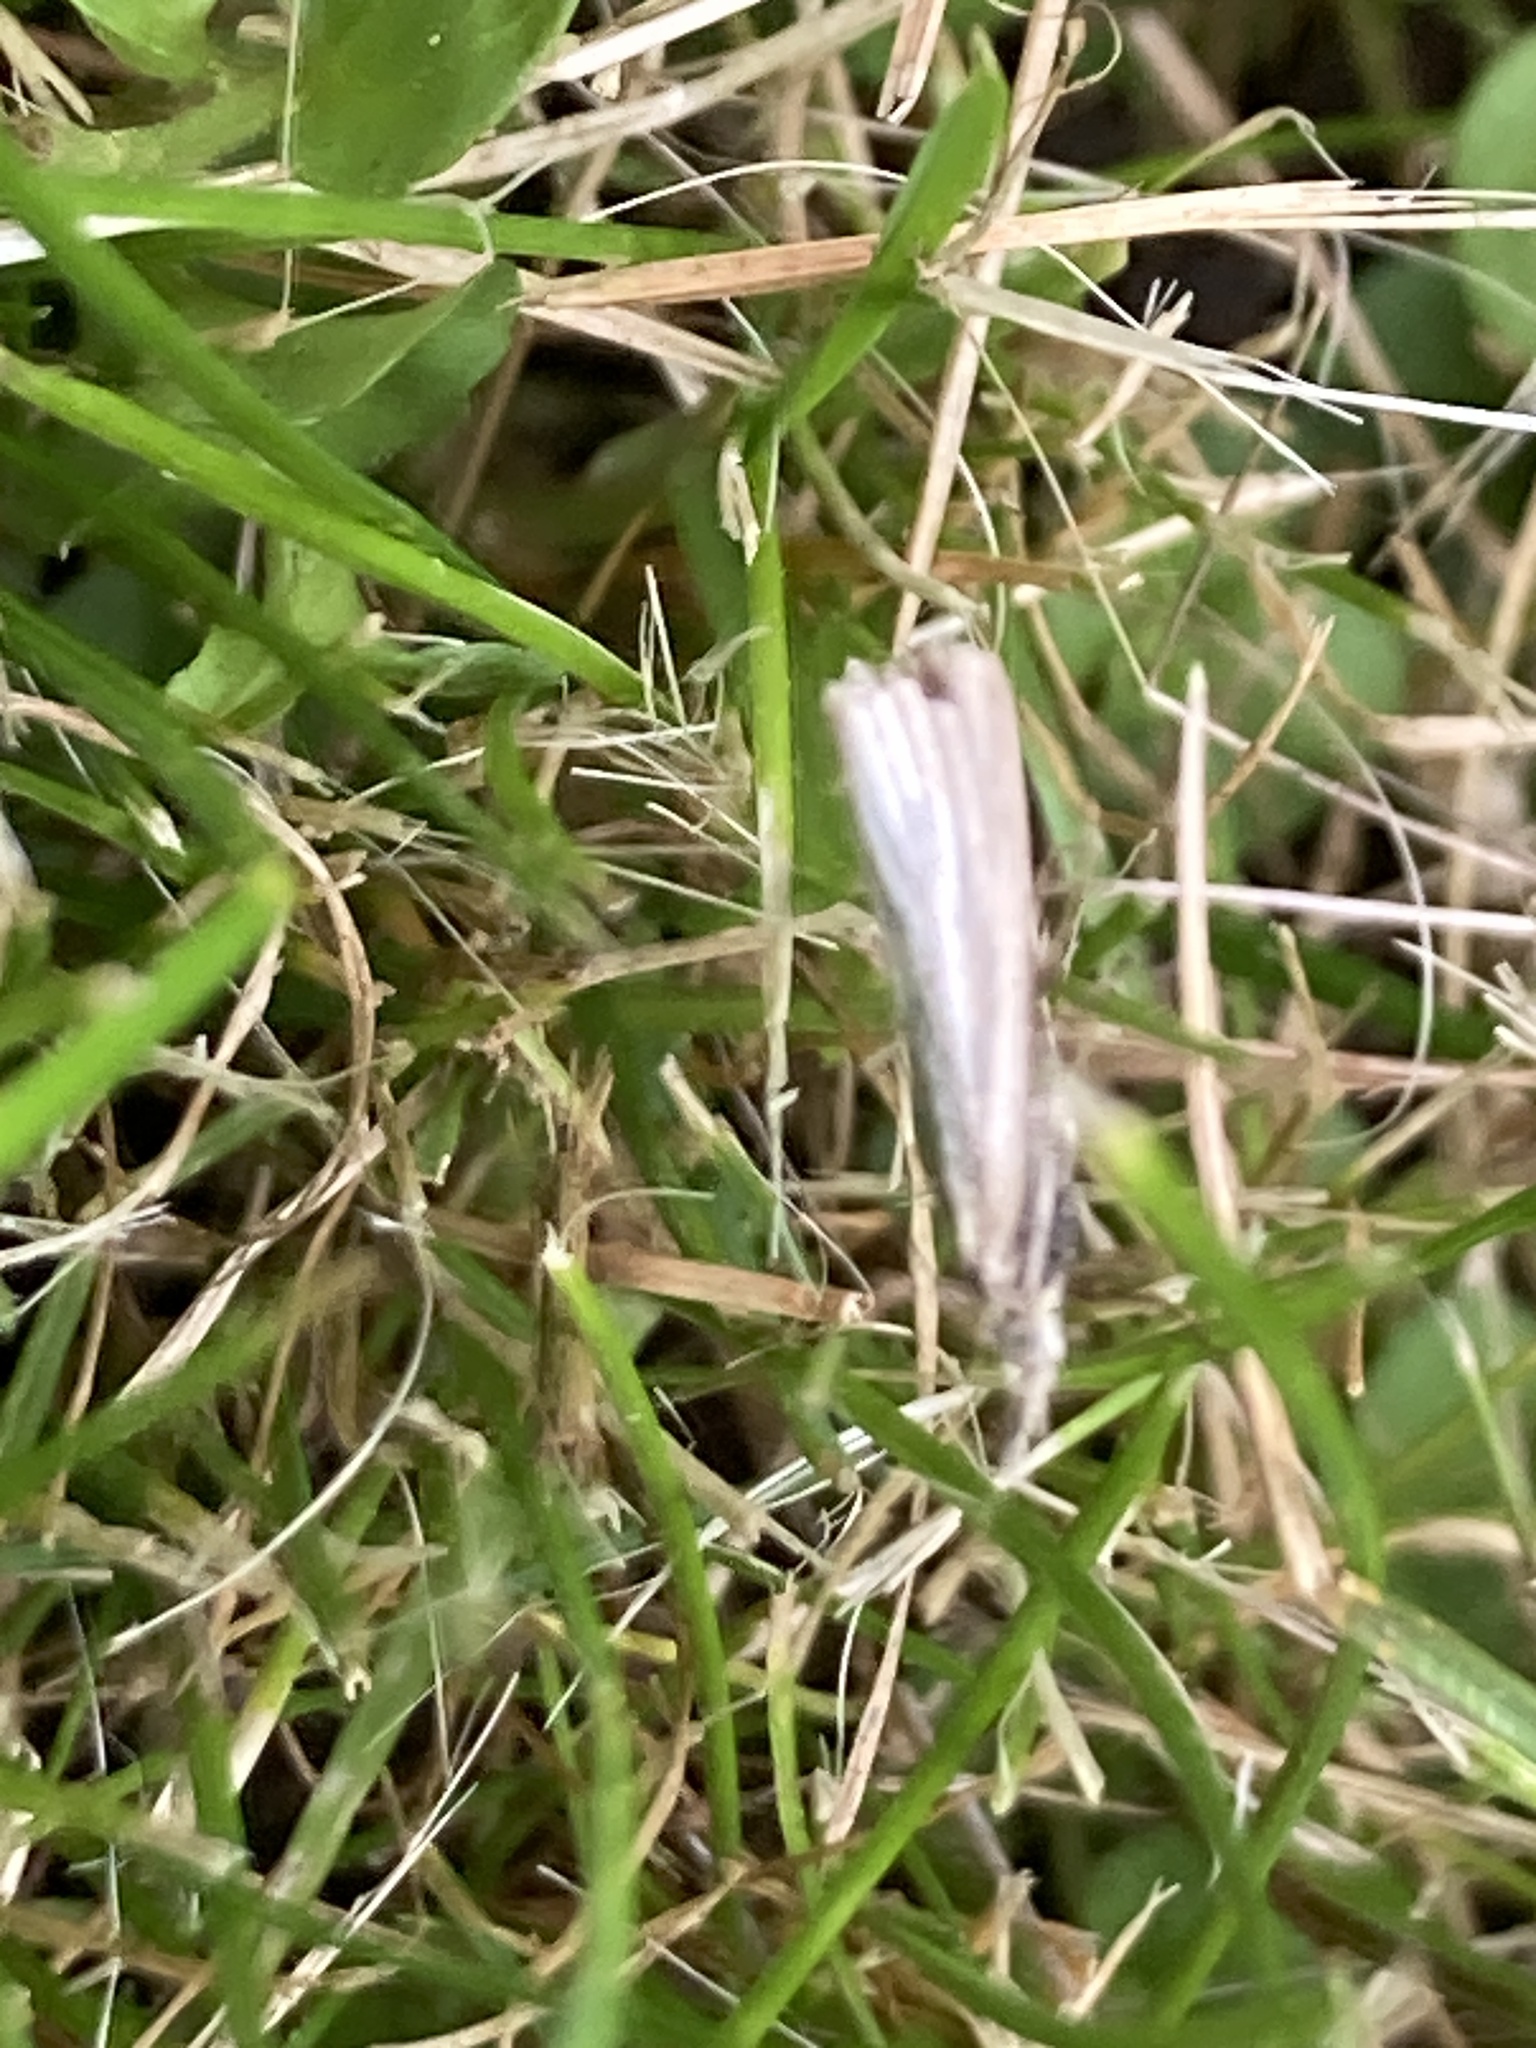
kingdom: Animalia
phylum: Arthropoda
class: Insecta
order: Lepidoptera
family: Crambidae
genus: Agriphila
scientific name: Agriphila straminella
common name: Straw grass-veneer
